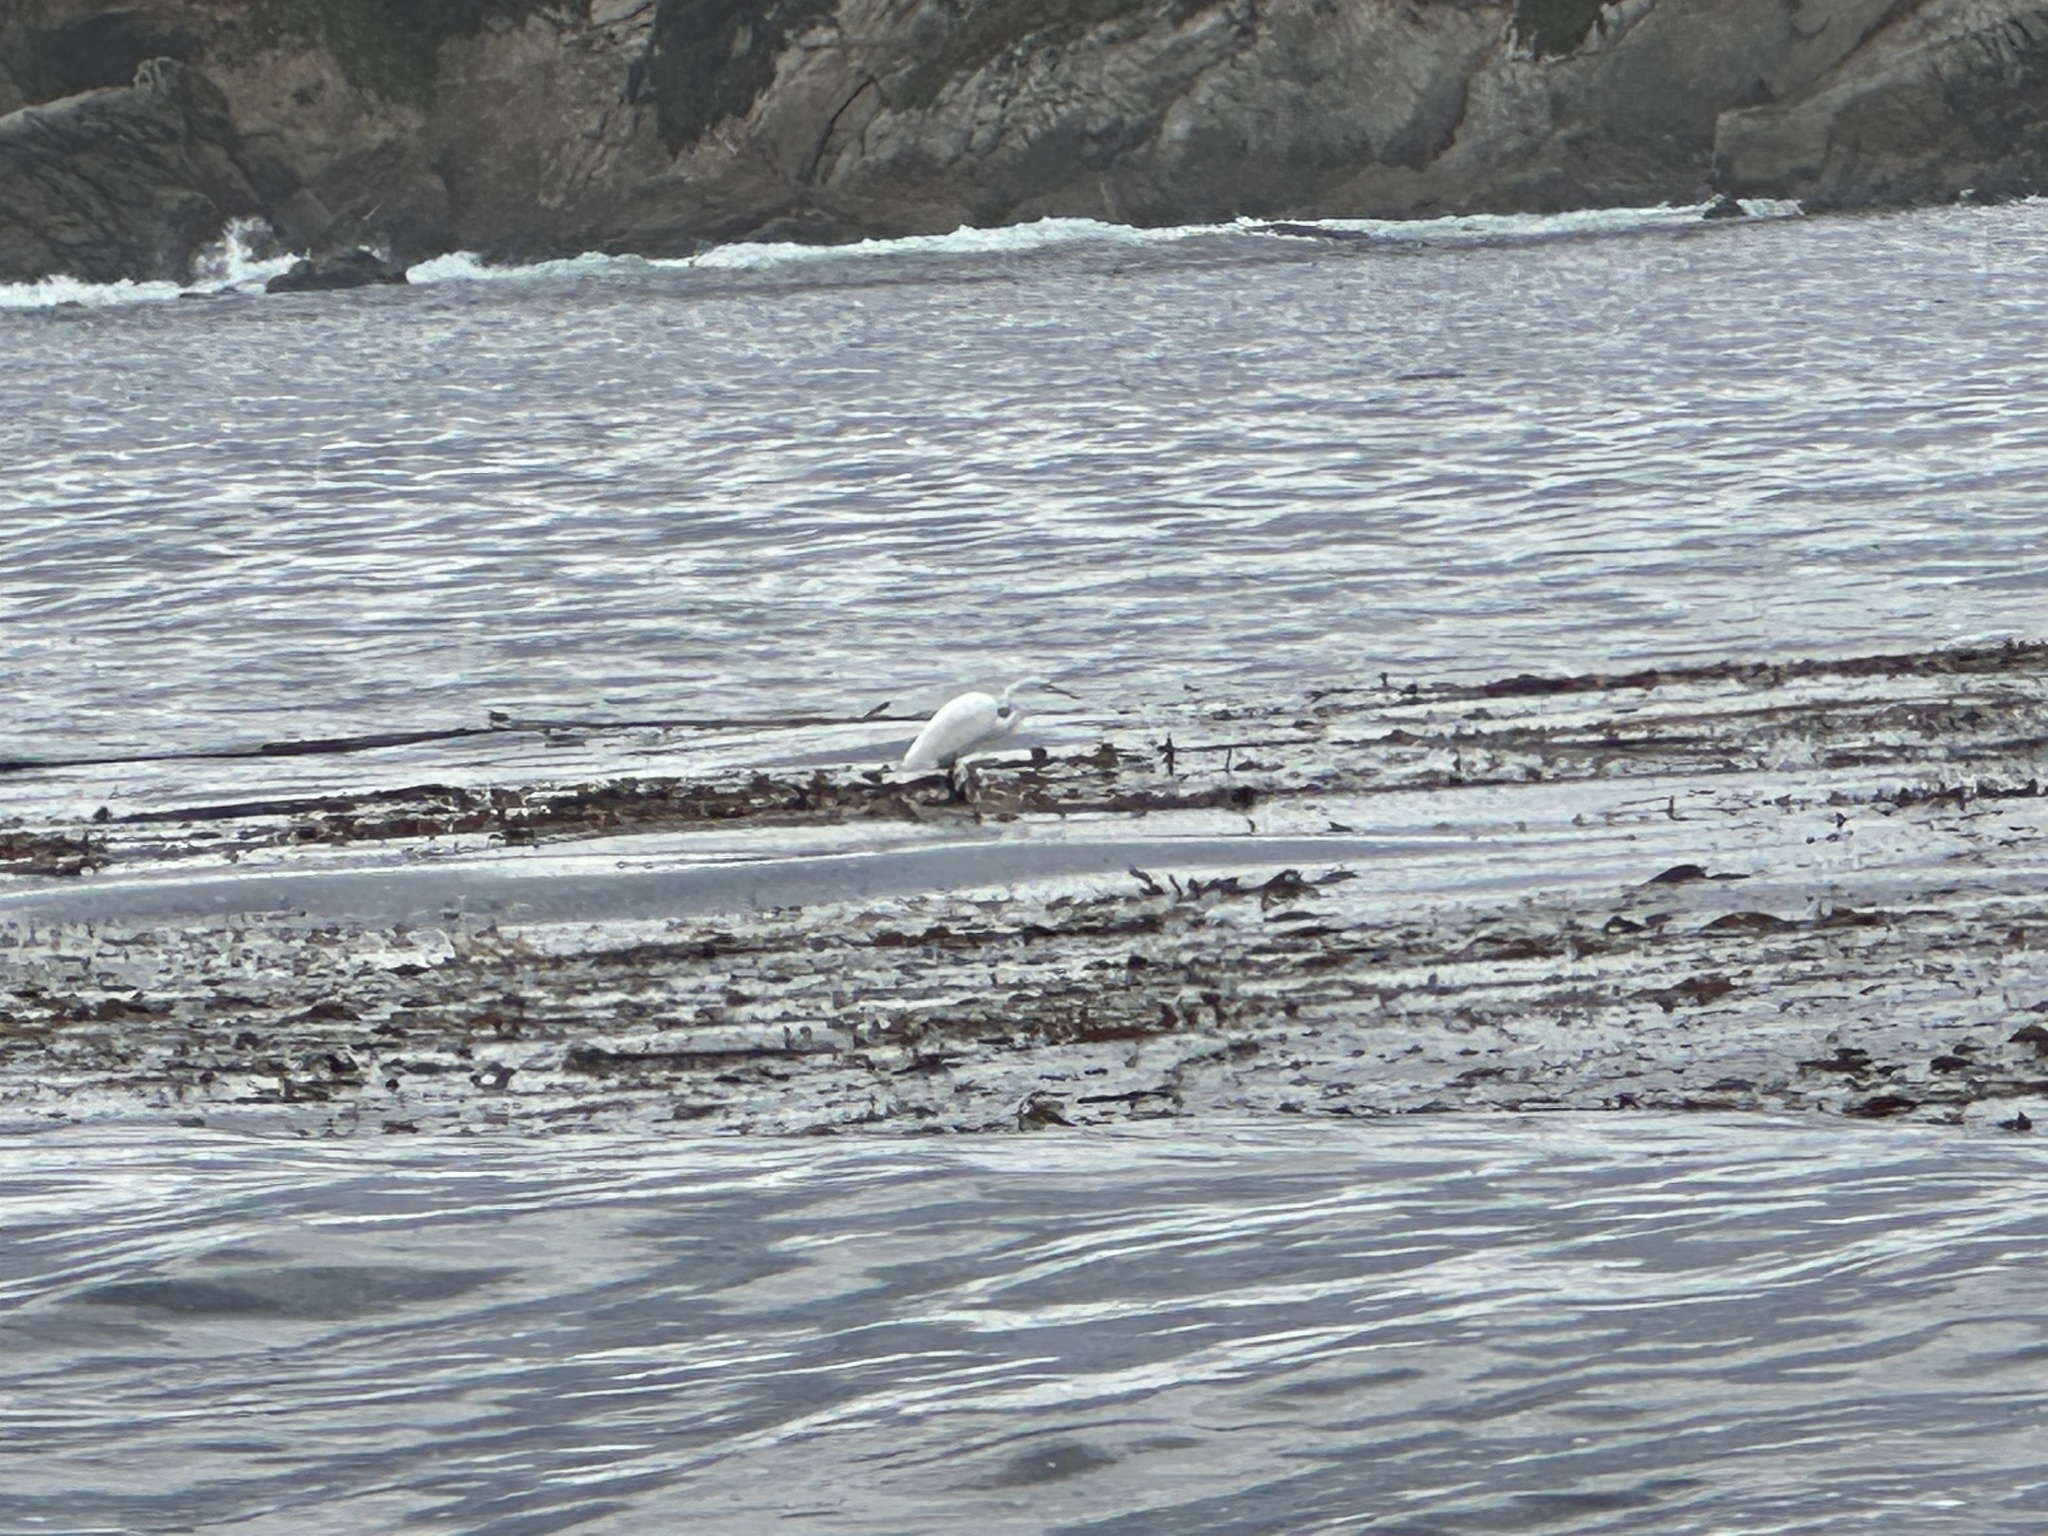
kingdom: Animalia
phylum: Chordata
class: Aves
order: Pelecaniformes
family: Ardeidae
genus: Ardea
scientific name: Ardea alba
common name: Great egret
